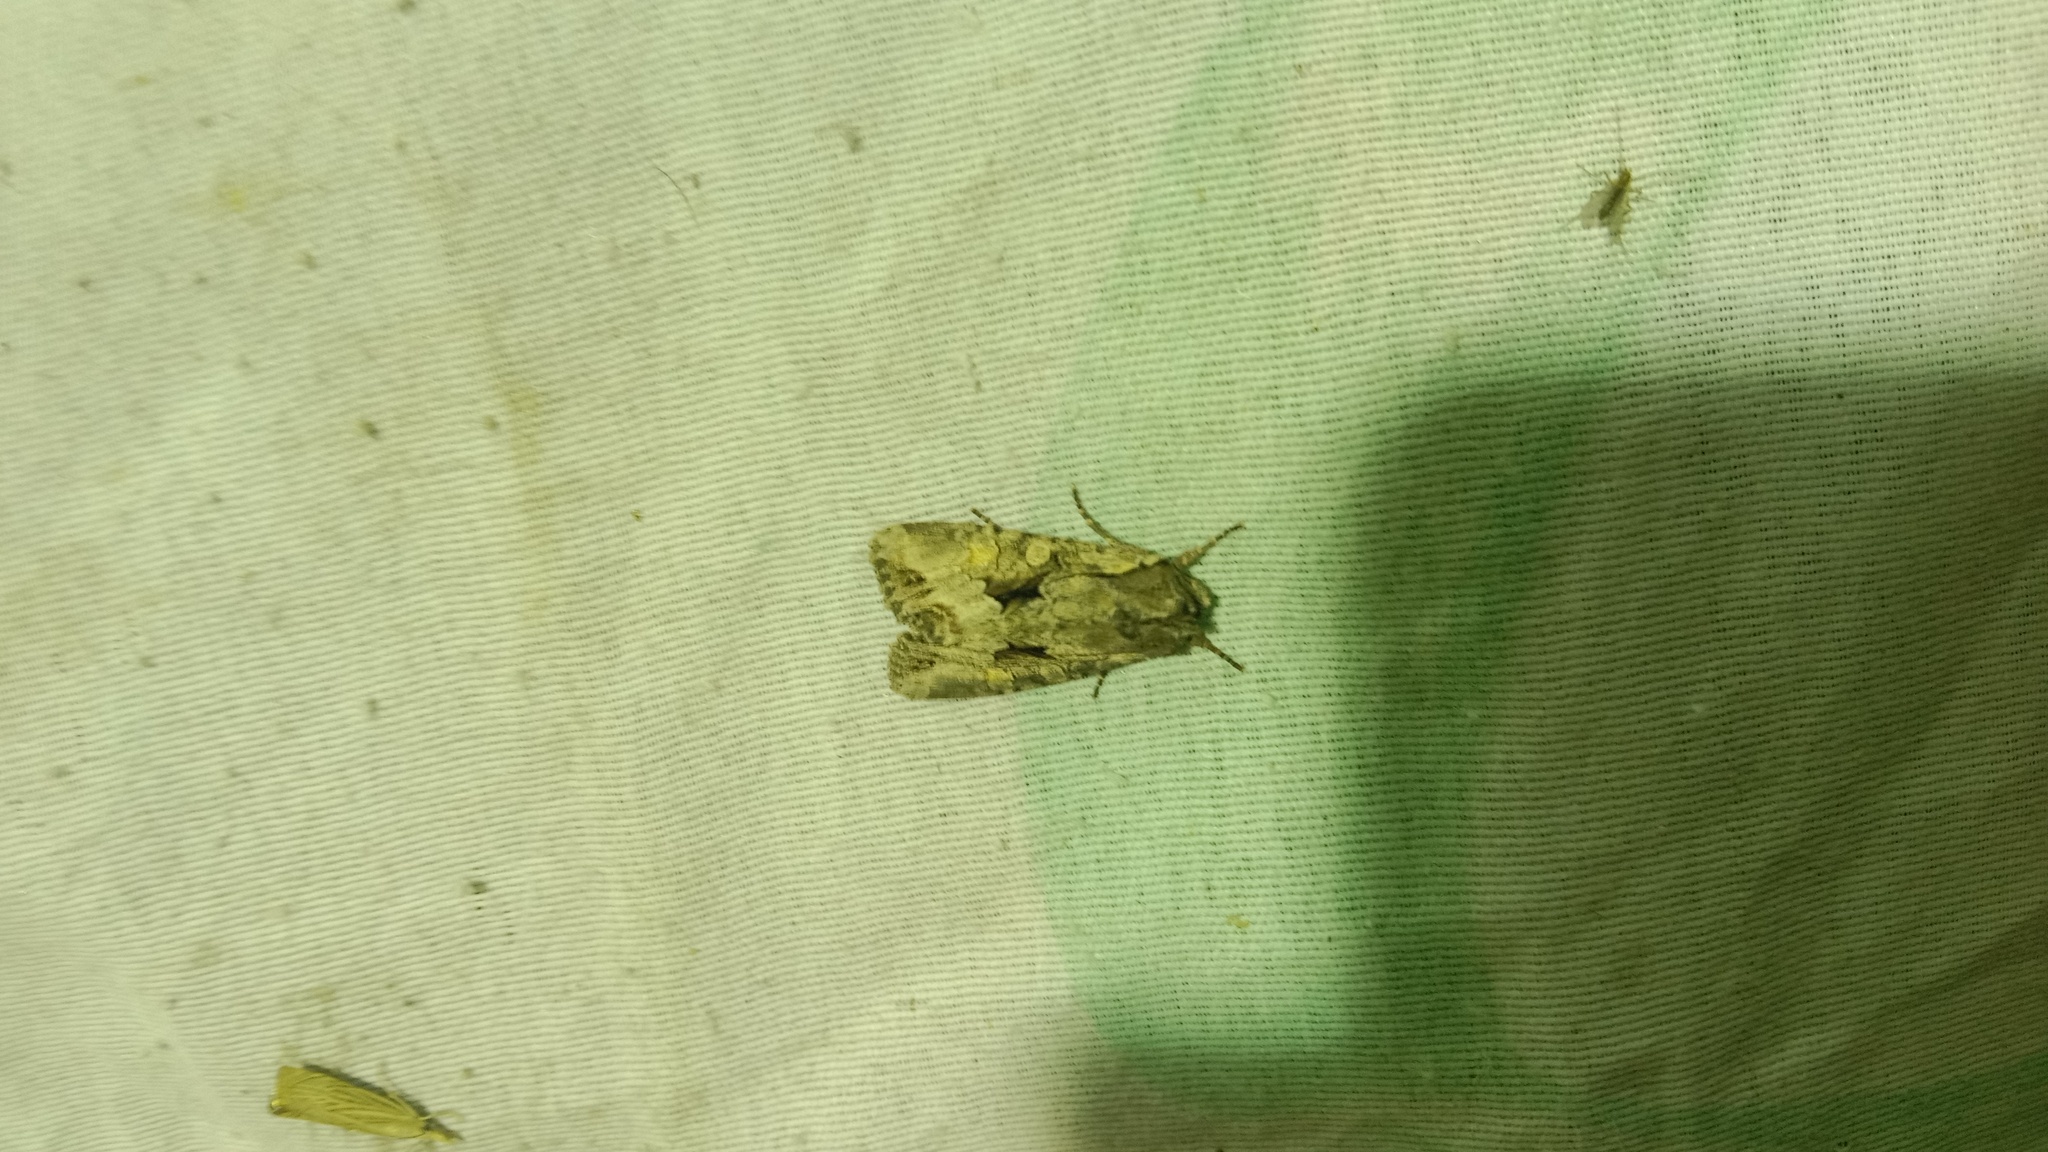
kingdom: Animalia
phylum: Arthropoda
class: Insecta
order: Lepidoptera
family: Noctuidae
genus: Lacanobia
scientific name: Lacanobia w-latinum
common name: Light brocade
